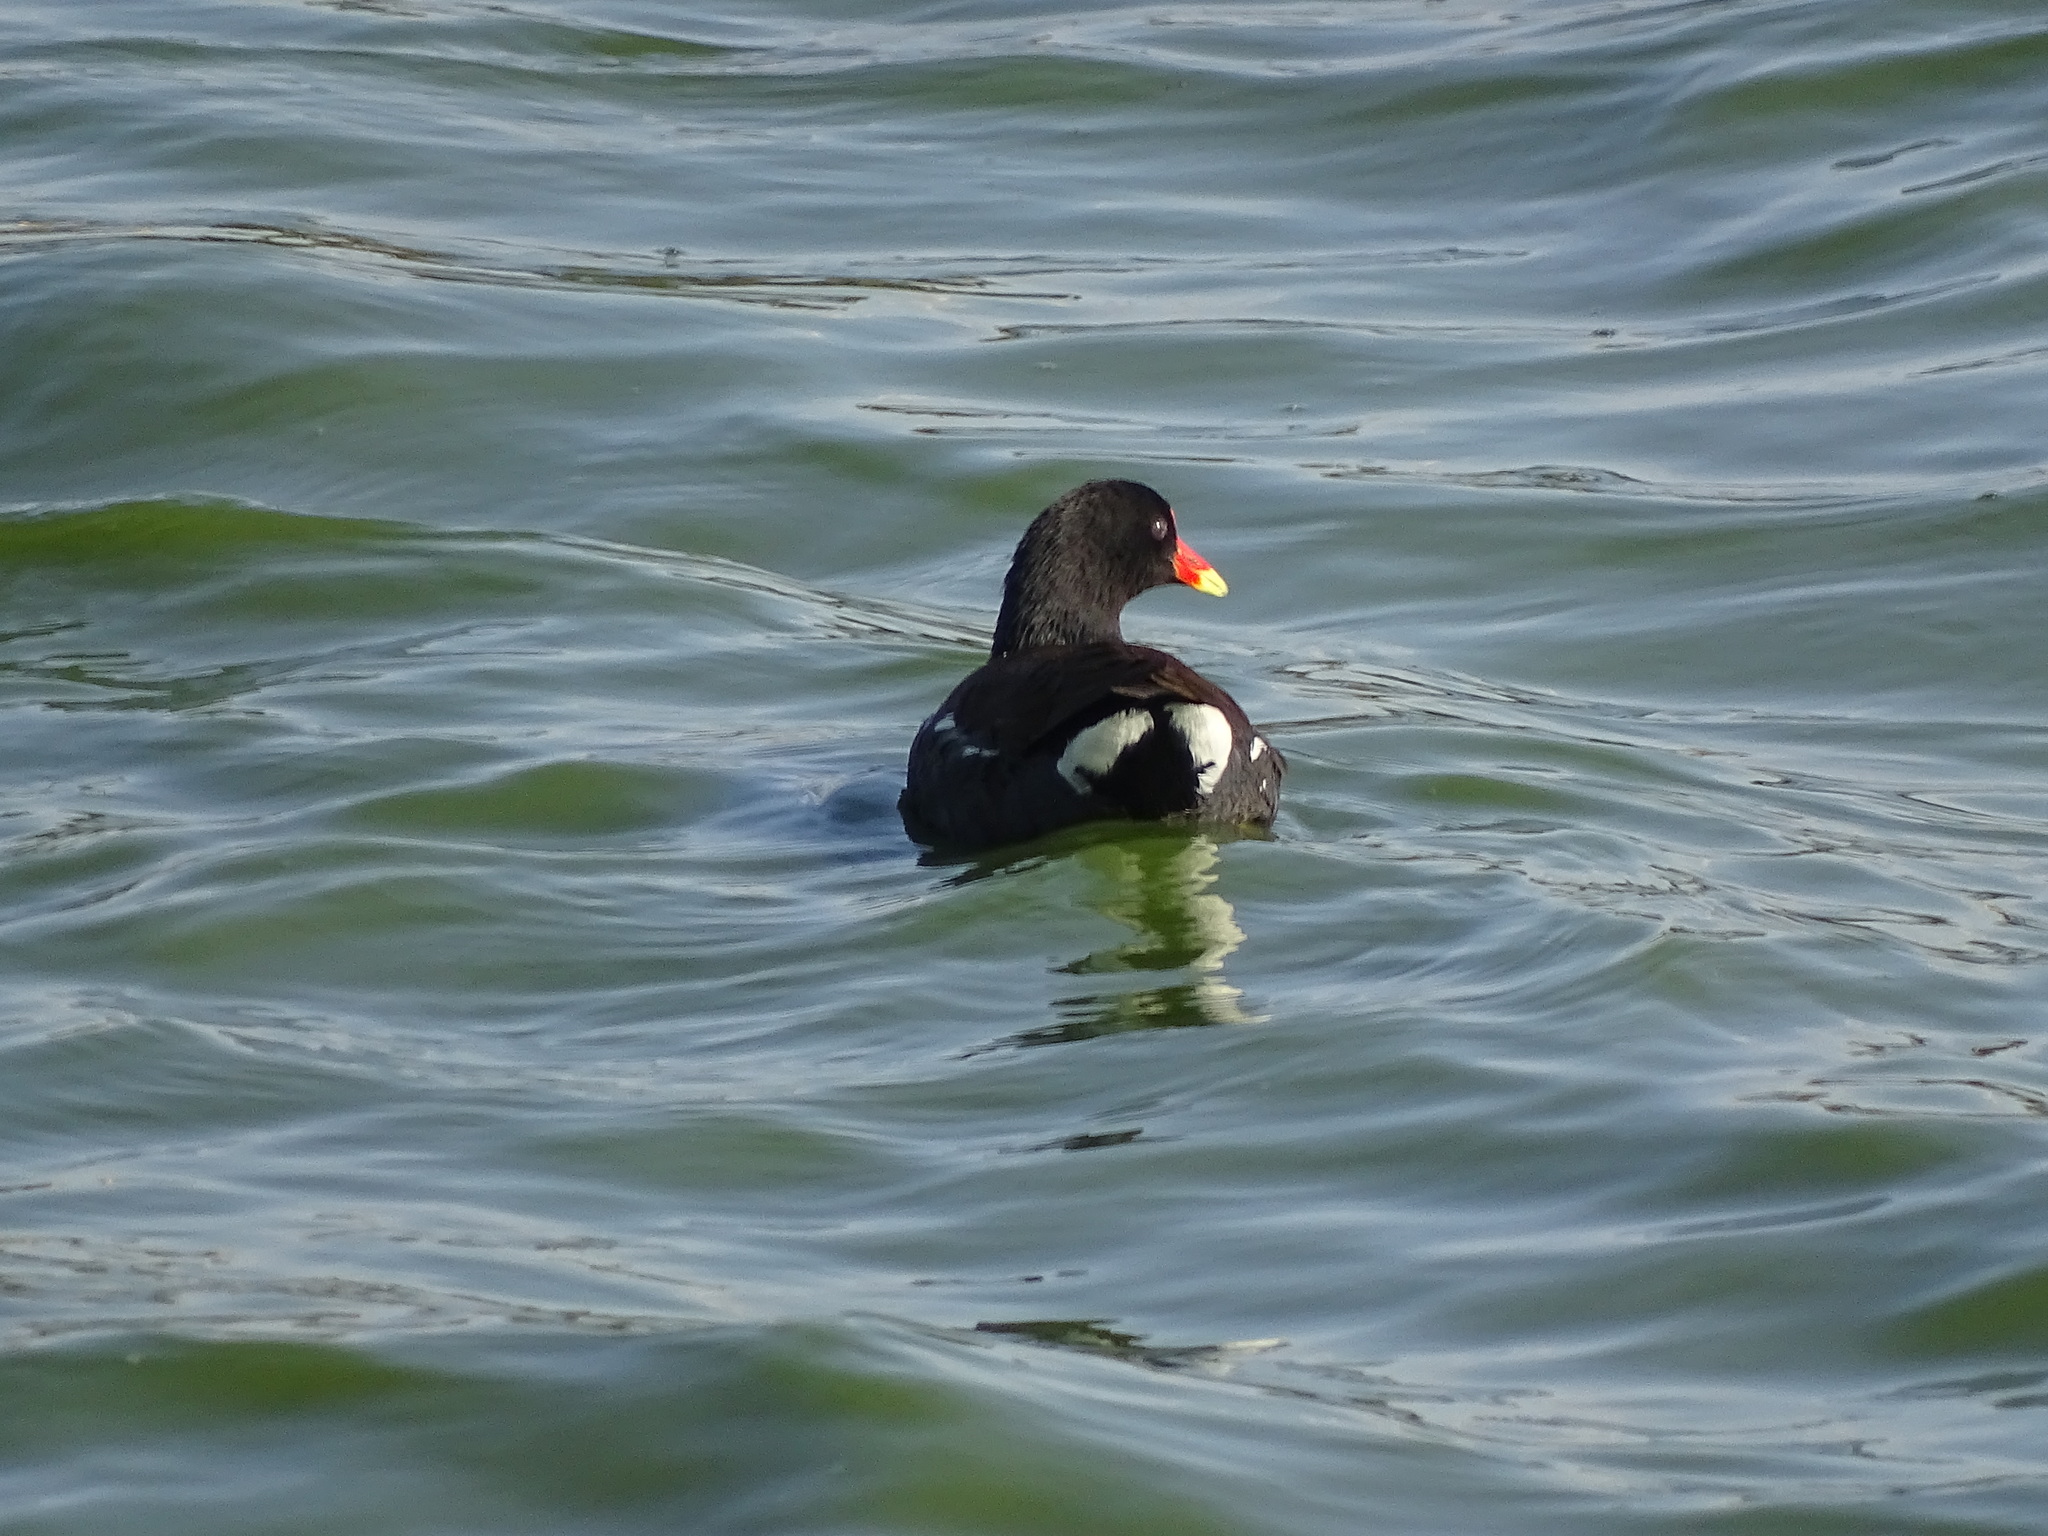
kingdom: Animalia
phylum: Chordata
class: Aves
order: Gruiformes
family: Rallidae
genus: Gallinula
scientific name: Gallinula chloropus
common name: Common moorhen
